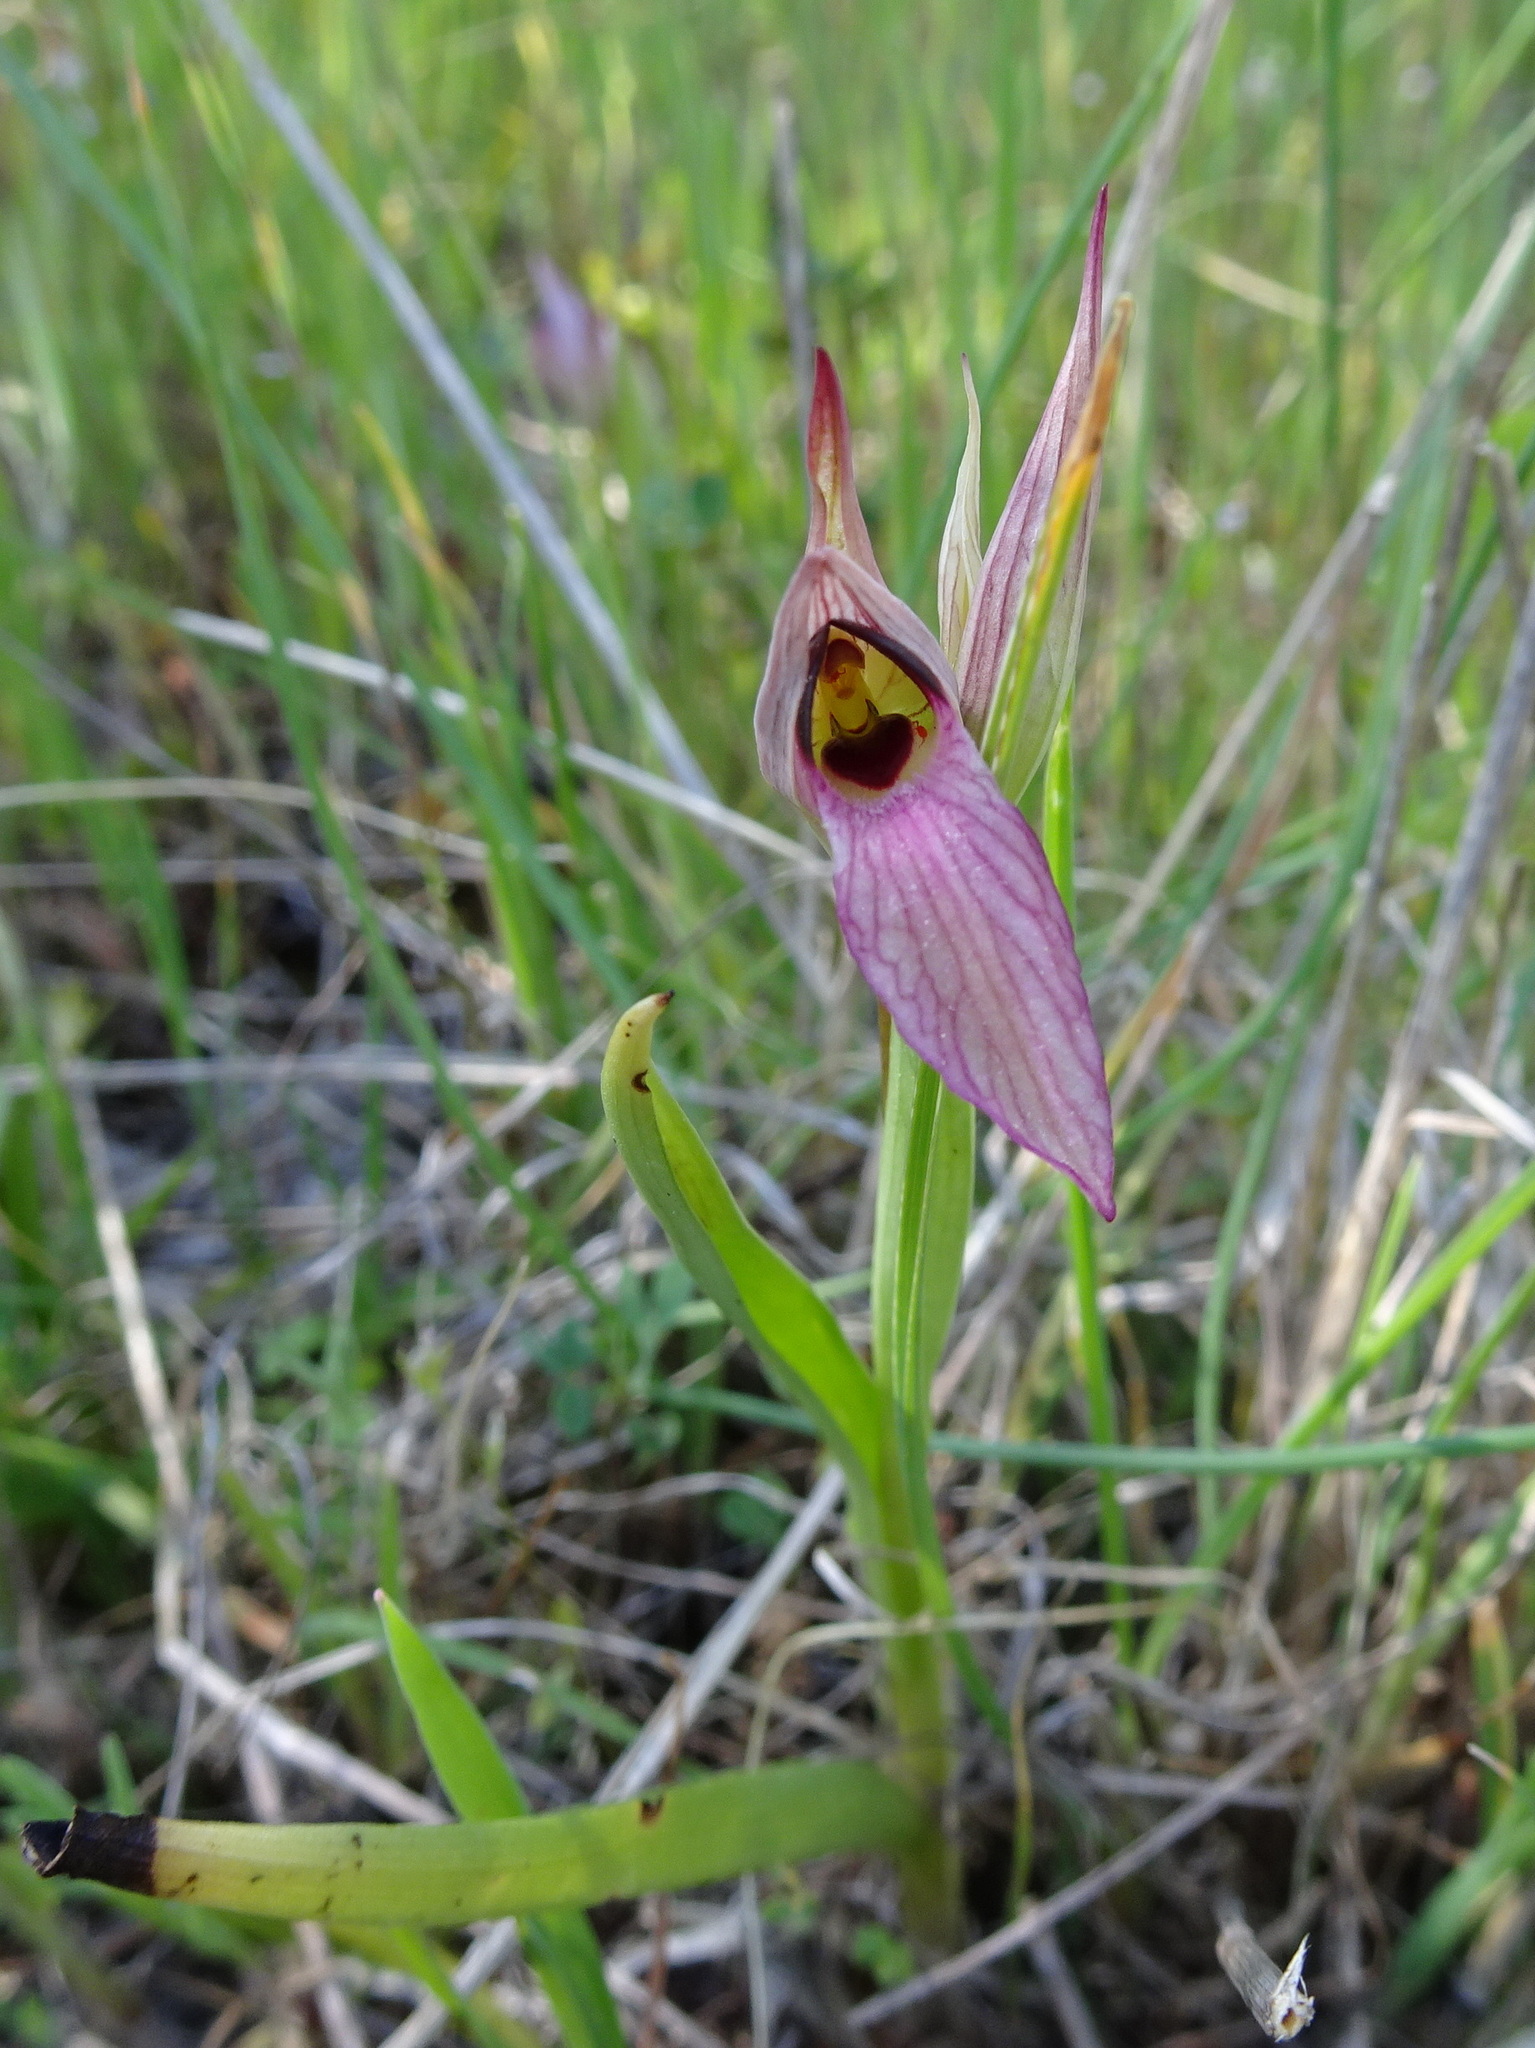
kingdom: Plantae
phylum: Tracheophyta
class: Liliopsida
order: Asparagales
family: Orchidaceae
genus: Serapias
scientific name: Serapias lingua
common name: Tongue-orchid
